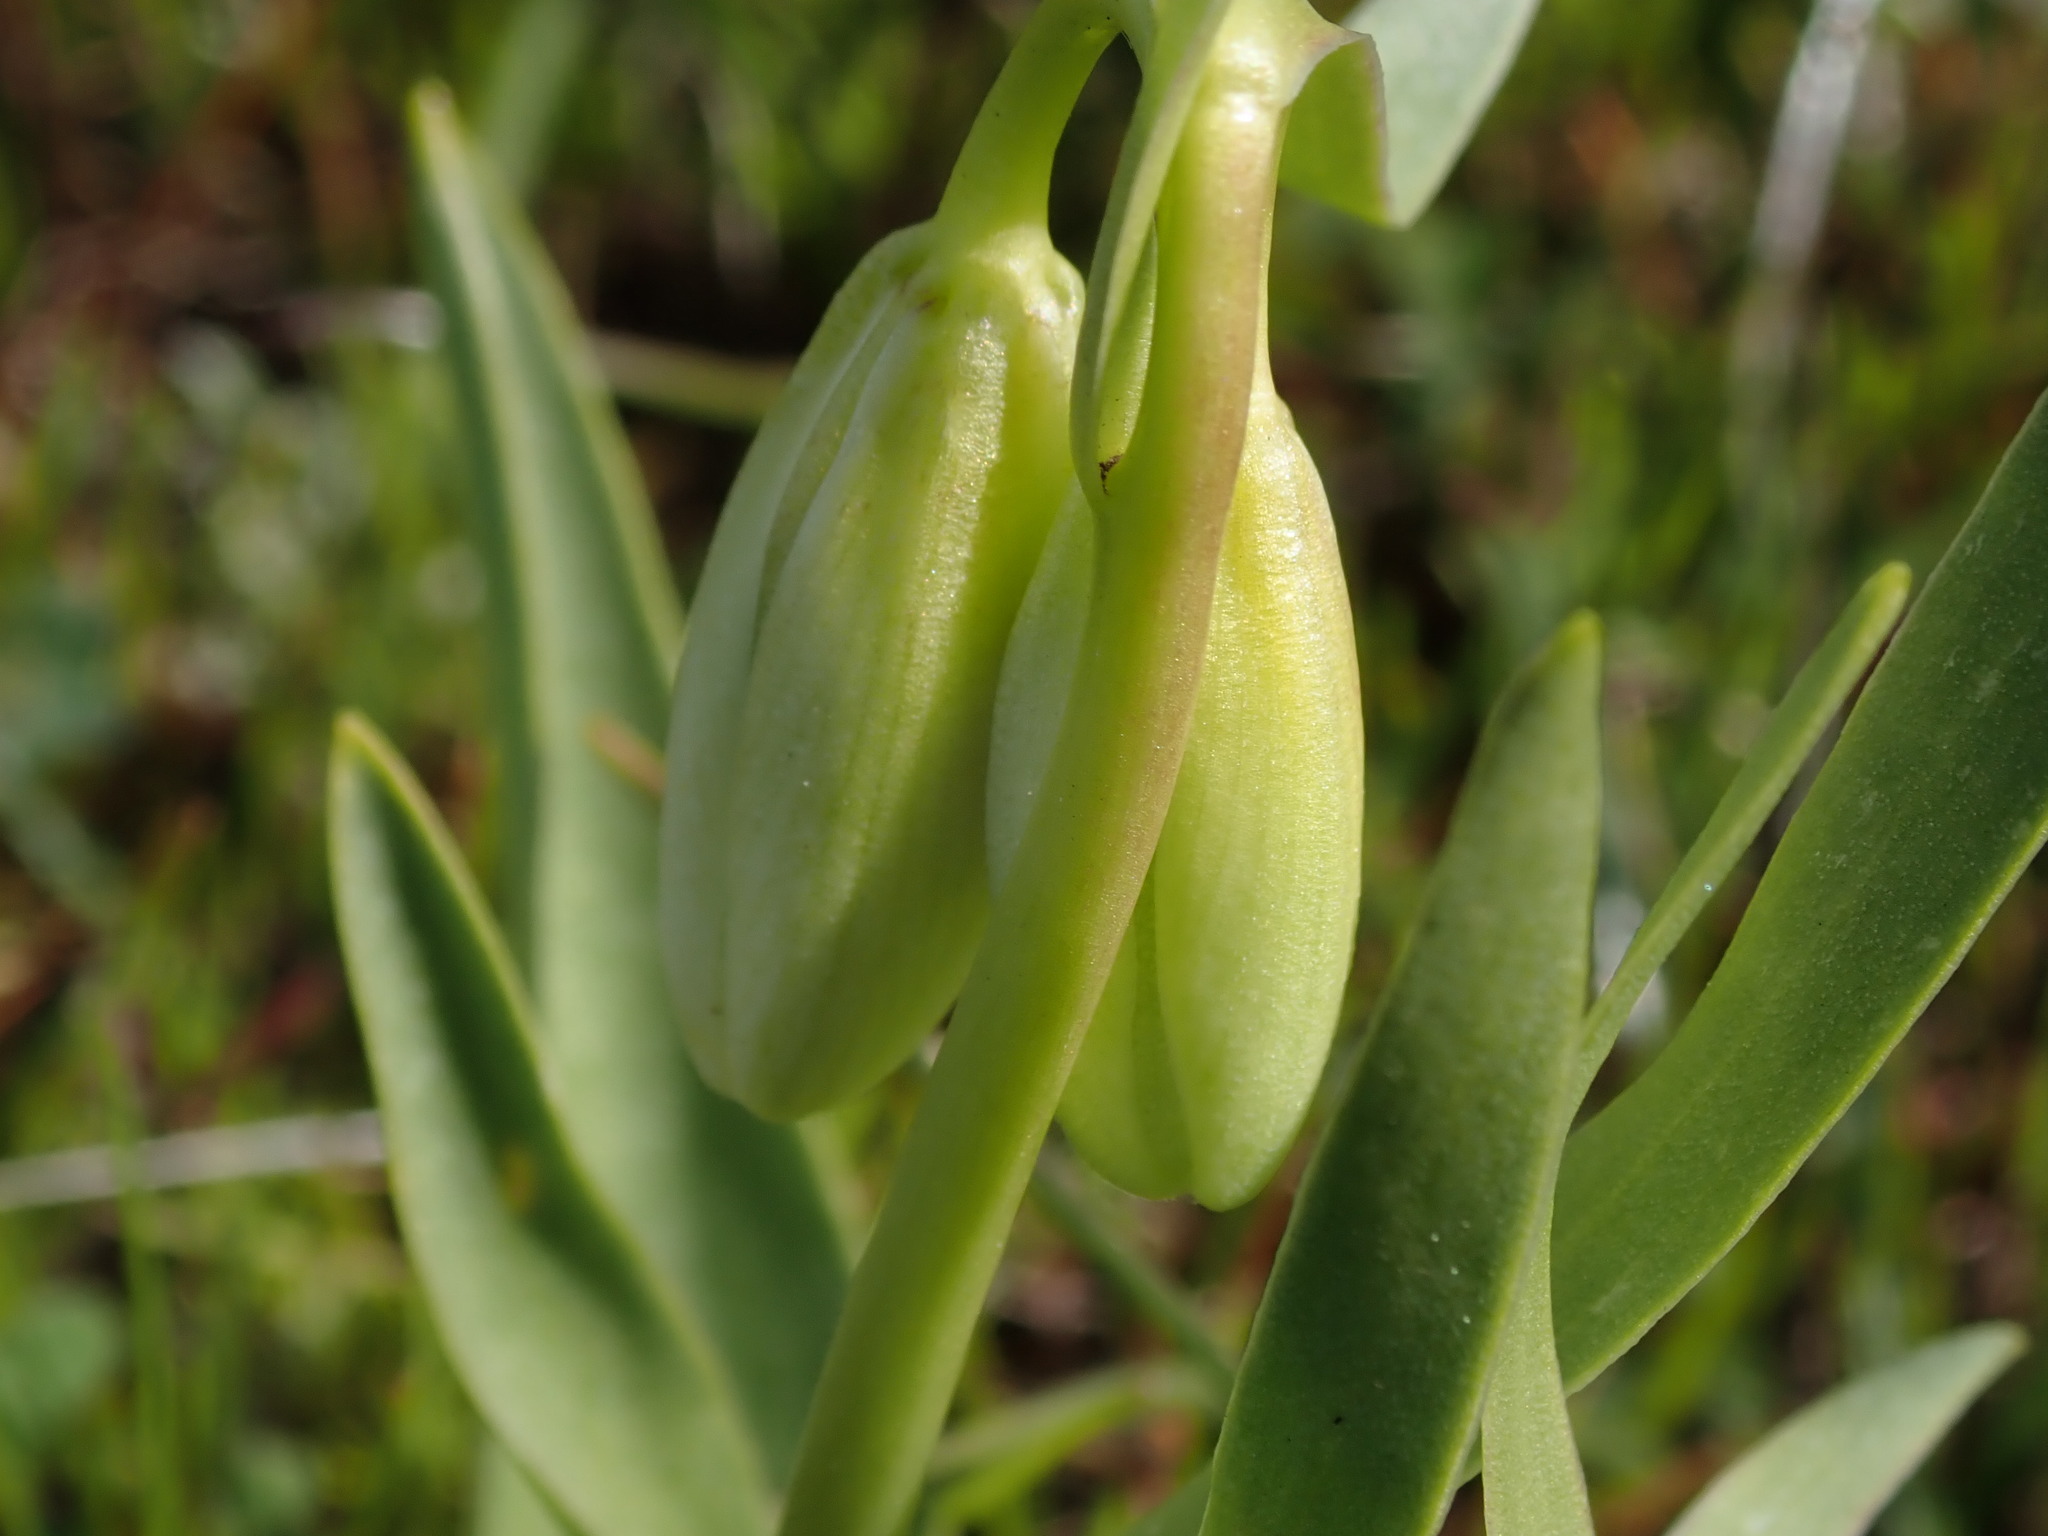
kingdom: Plantae
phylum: Tracheophyta
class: Liliopsida
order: Liliales
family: Liliaceae
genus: Fritillaria
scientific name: Fritillaria liliacea
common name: Fragrant fritillary
